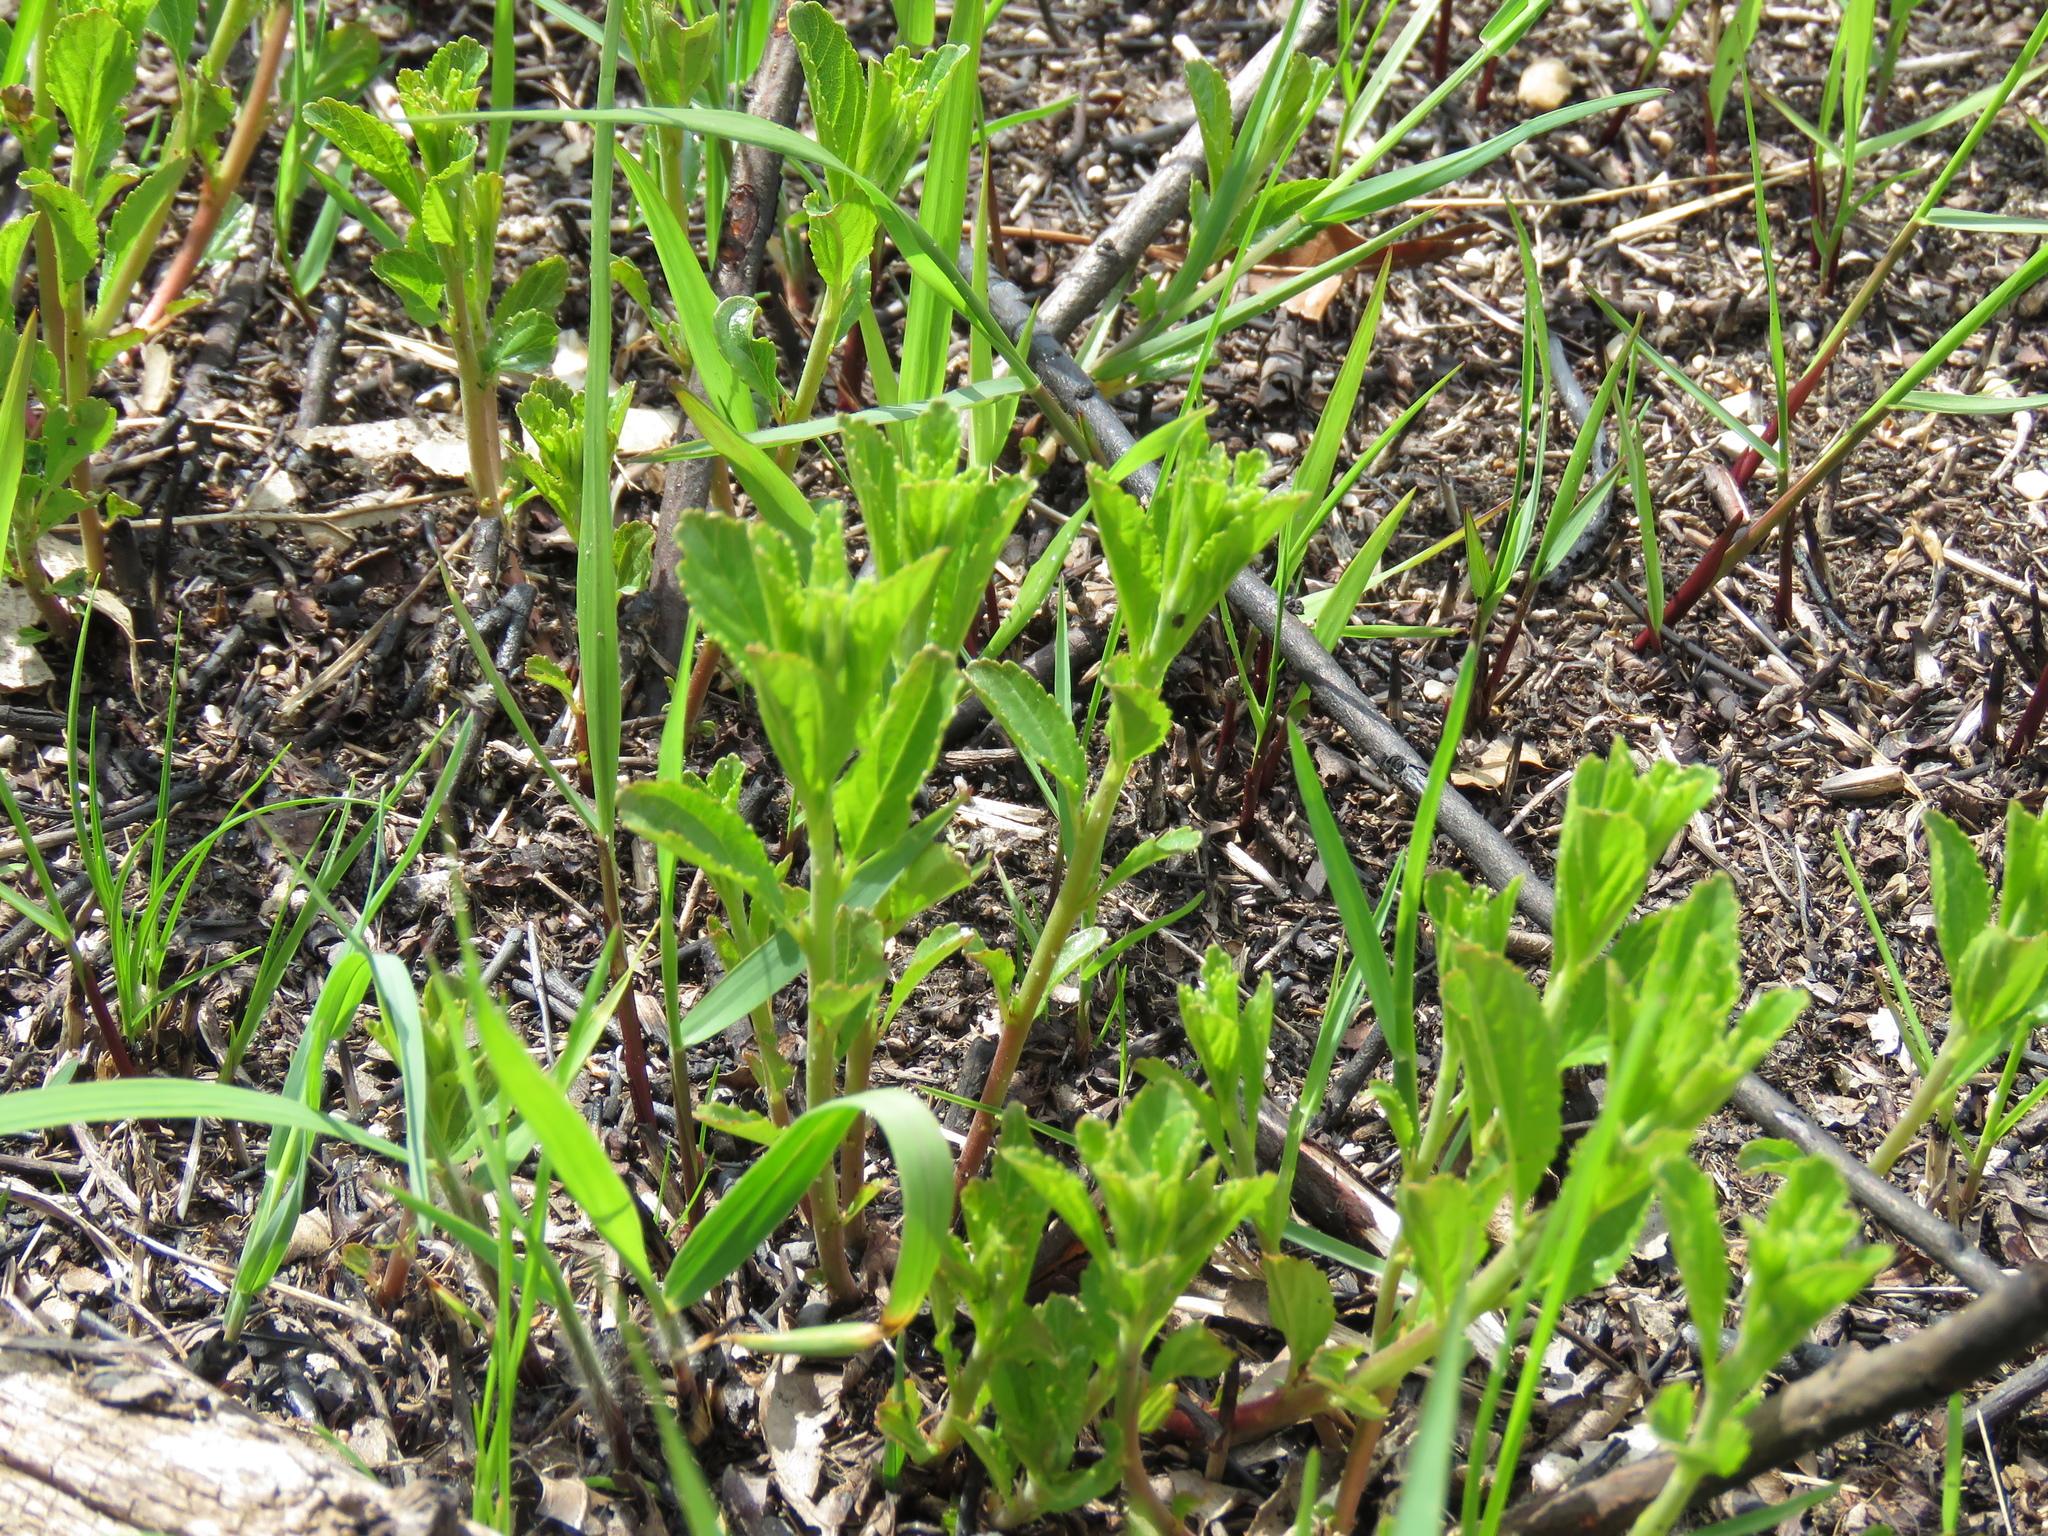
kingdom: Plantae
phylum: Tracheophyta
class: Magnoliopsida
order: Rosales
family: Rhamnaceae
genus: Ceanothus
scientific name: Ceanothus herbaceus
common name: Inland ceanothus
